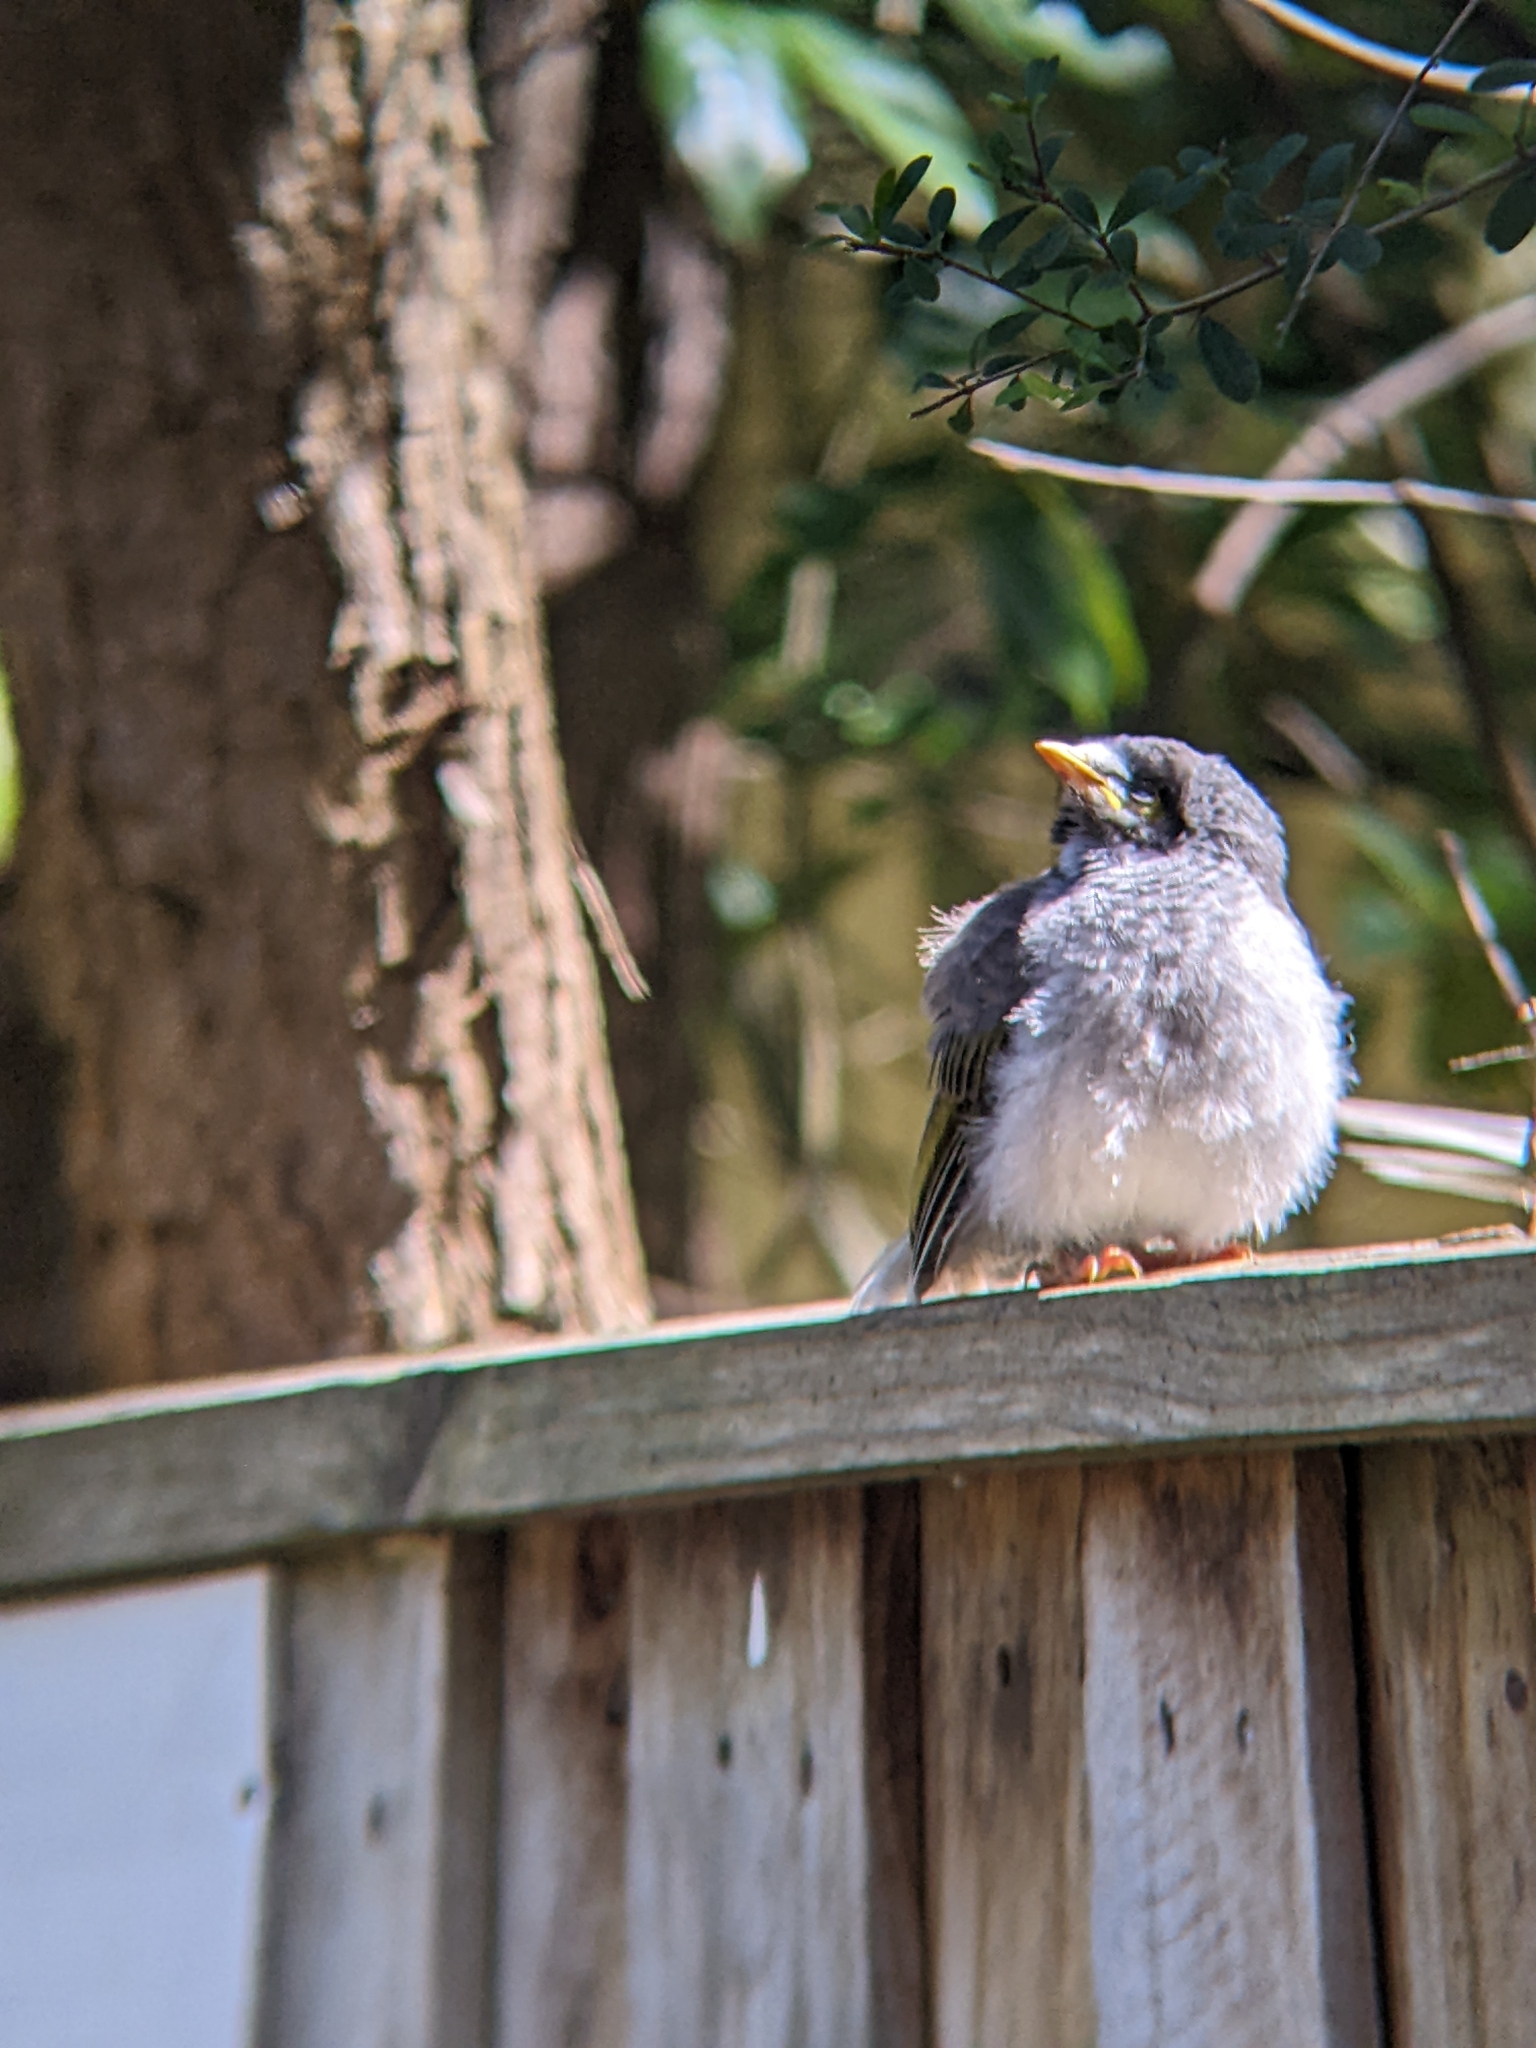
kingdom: Animalia
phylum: Chordata
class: Aves
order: Passeriformes
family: Meliphagidae
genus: Manorina
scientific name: Manorina melanocephala
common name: Noisy miner
